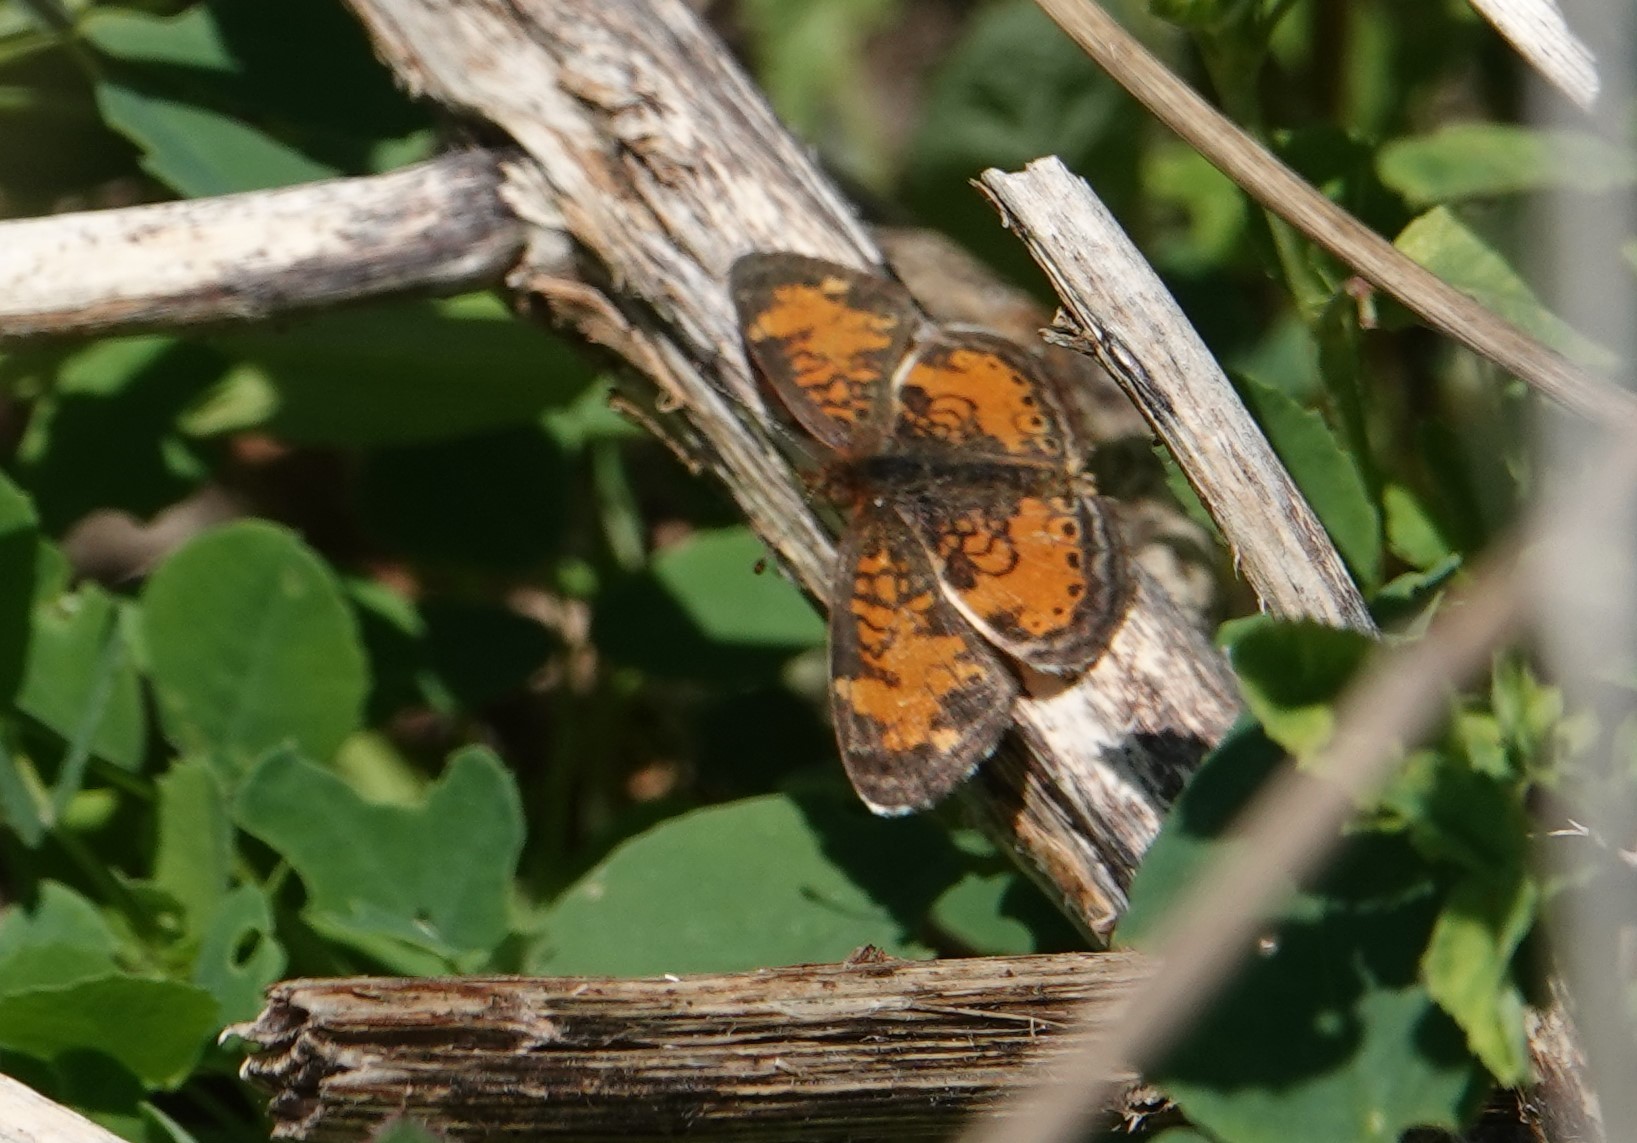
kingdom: Animalia
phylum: Arthropoda
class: Insecta
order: Lepidoptera
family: Nymphalidae
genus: Phyciodes
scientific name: Phyciodes tharos
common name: Pearl crescent
